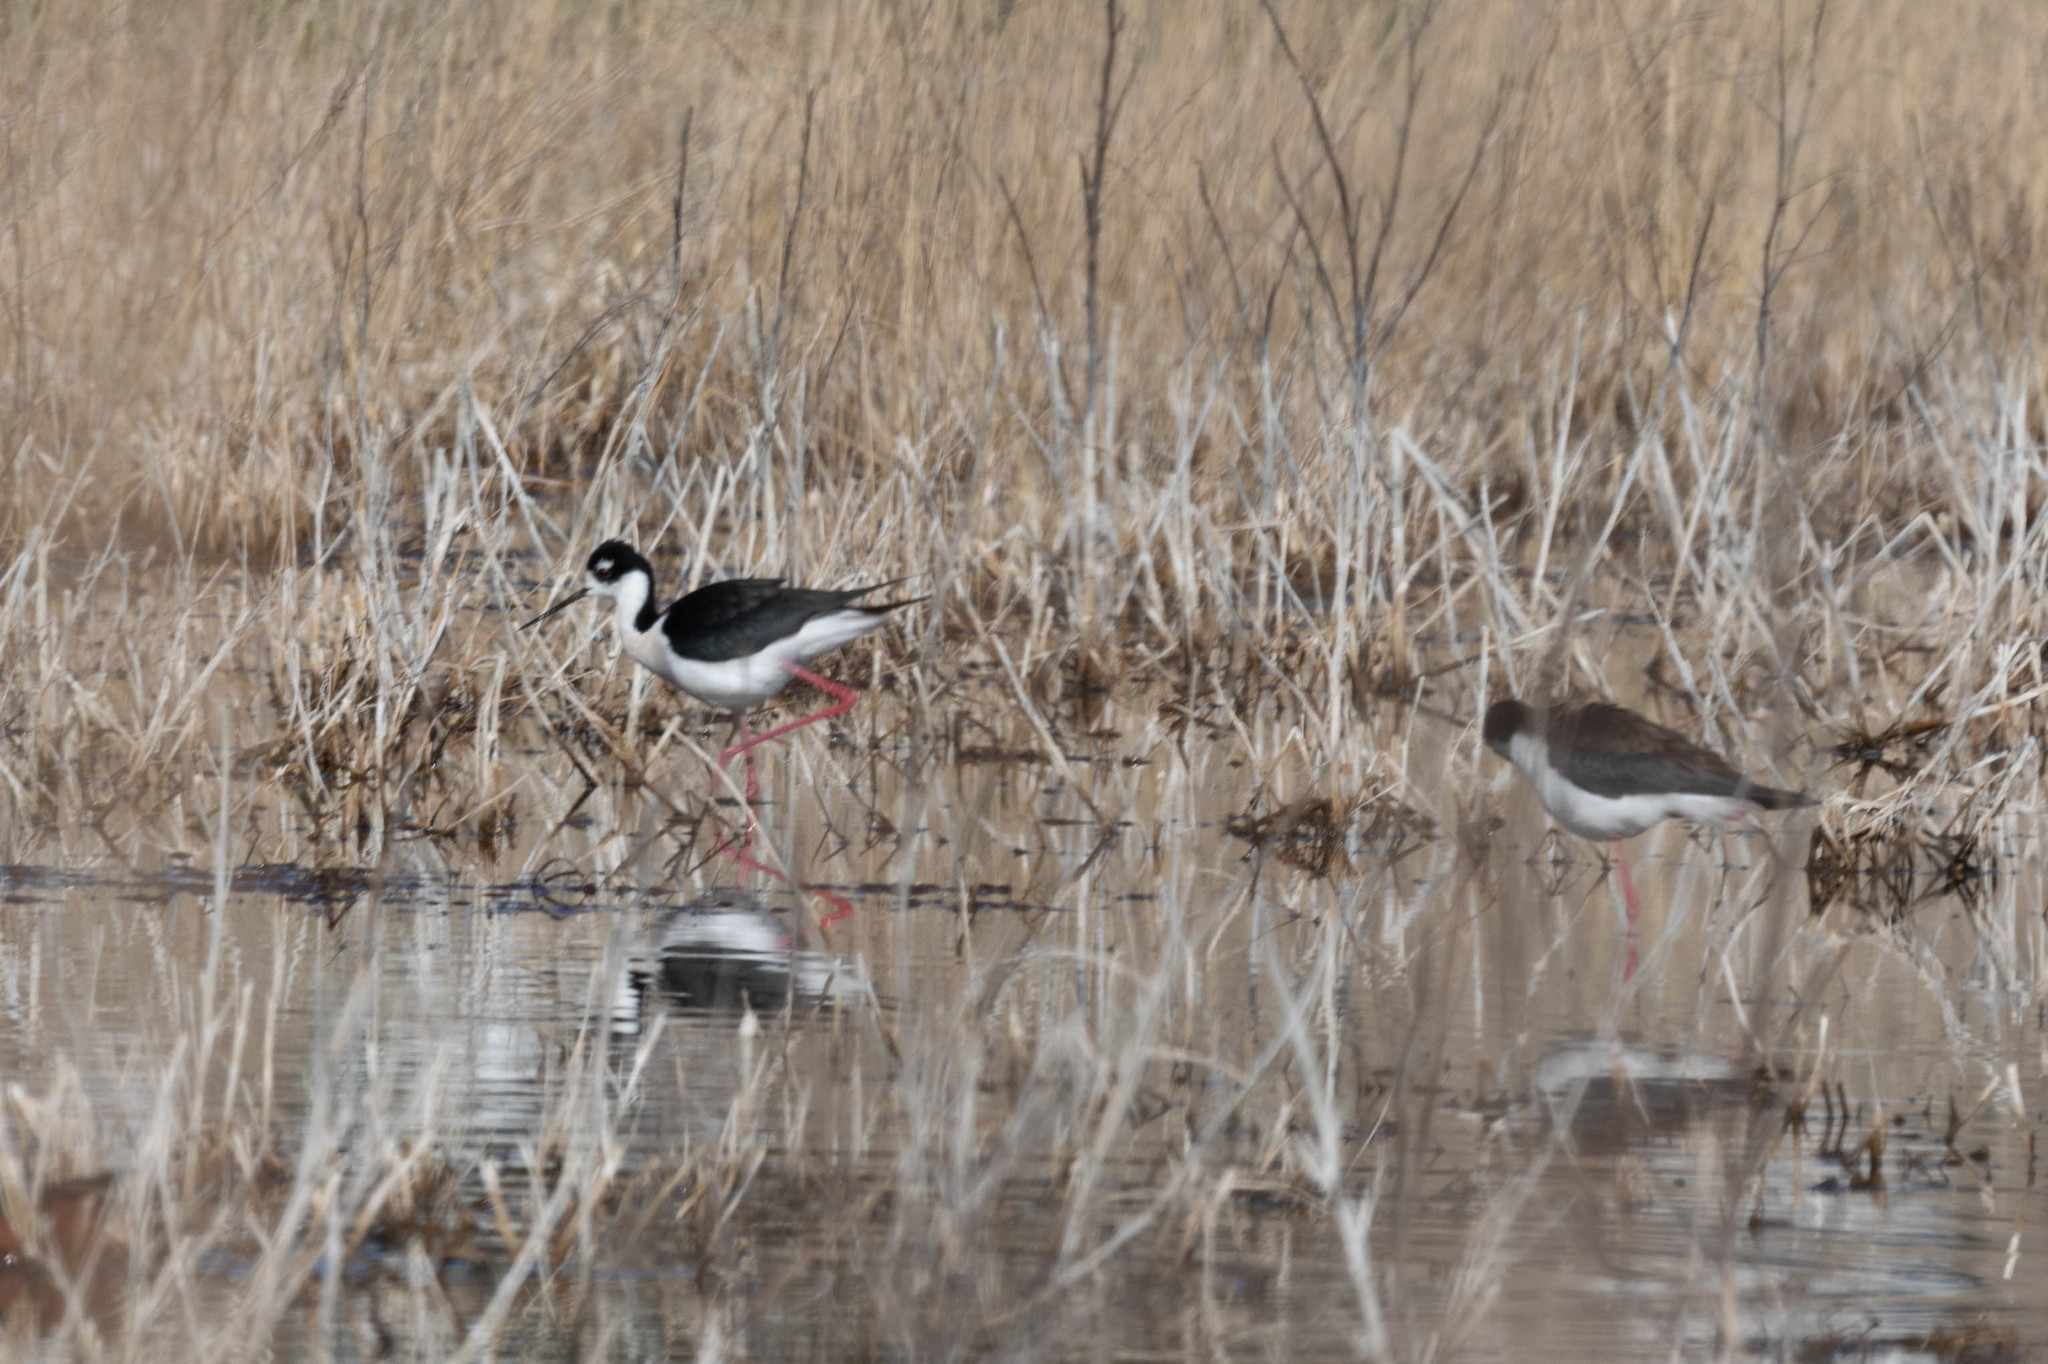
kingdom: Animalia
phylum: Chordata
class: Aves
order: Charadriiformes
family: Recurvirostridae
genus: Himantopus
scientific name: Himantopus mexicanus
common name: Black-necked stilt
